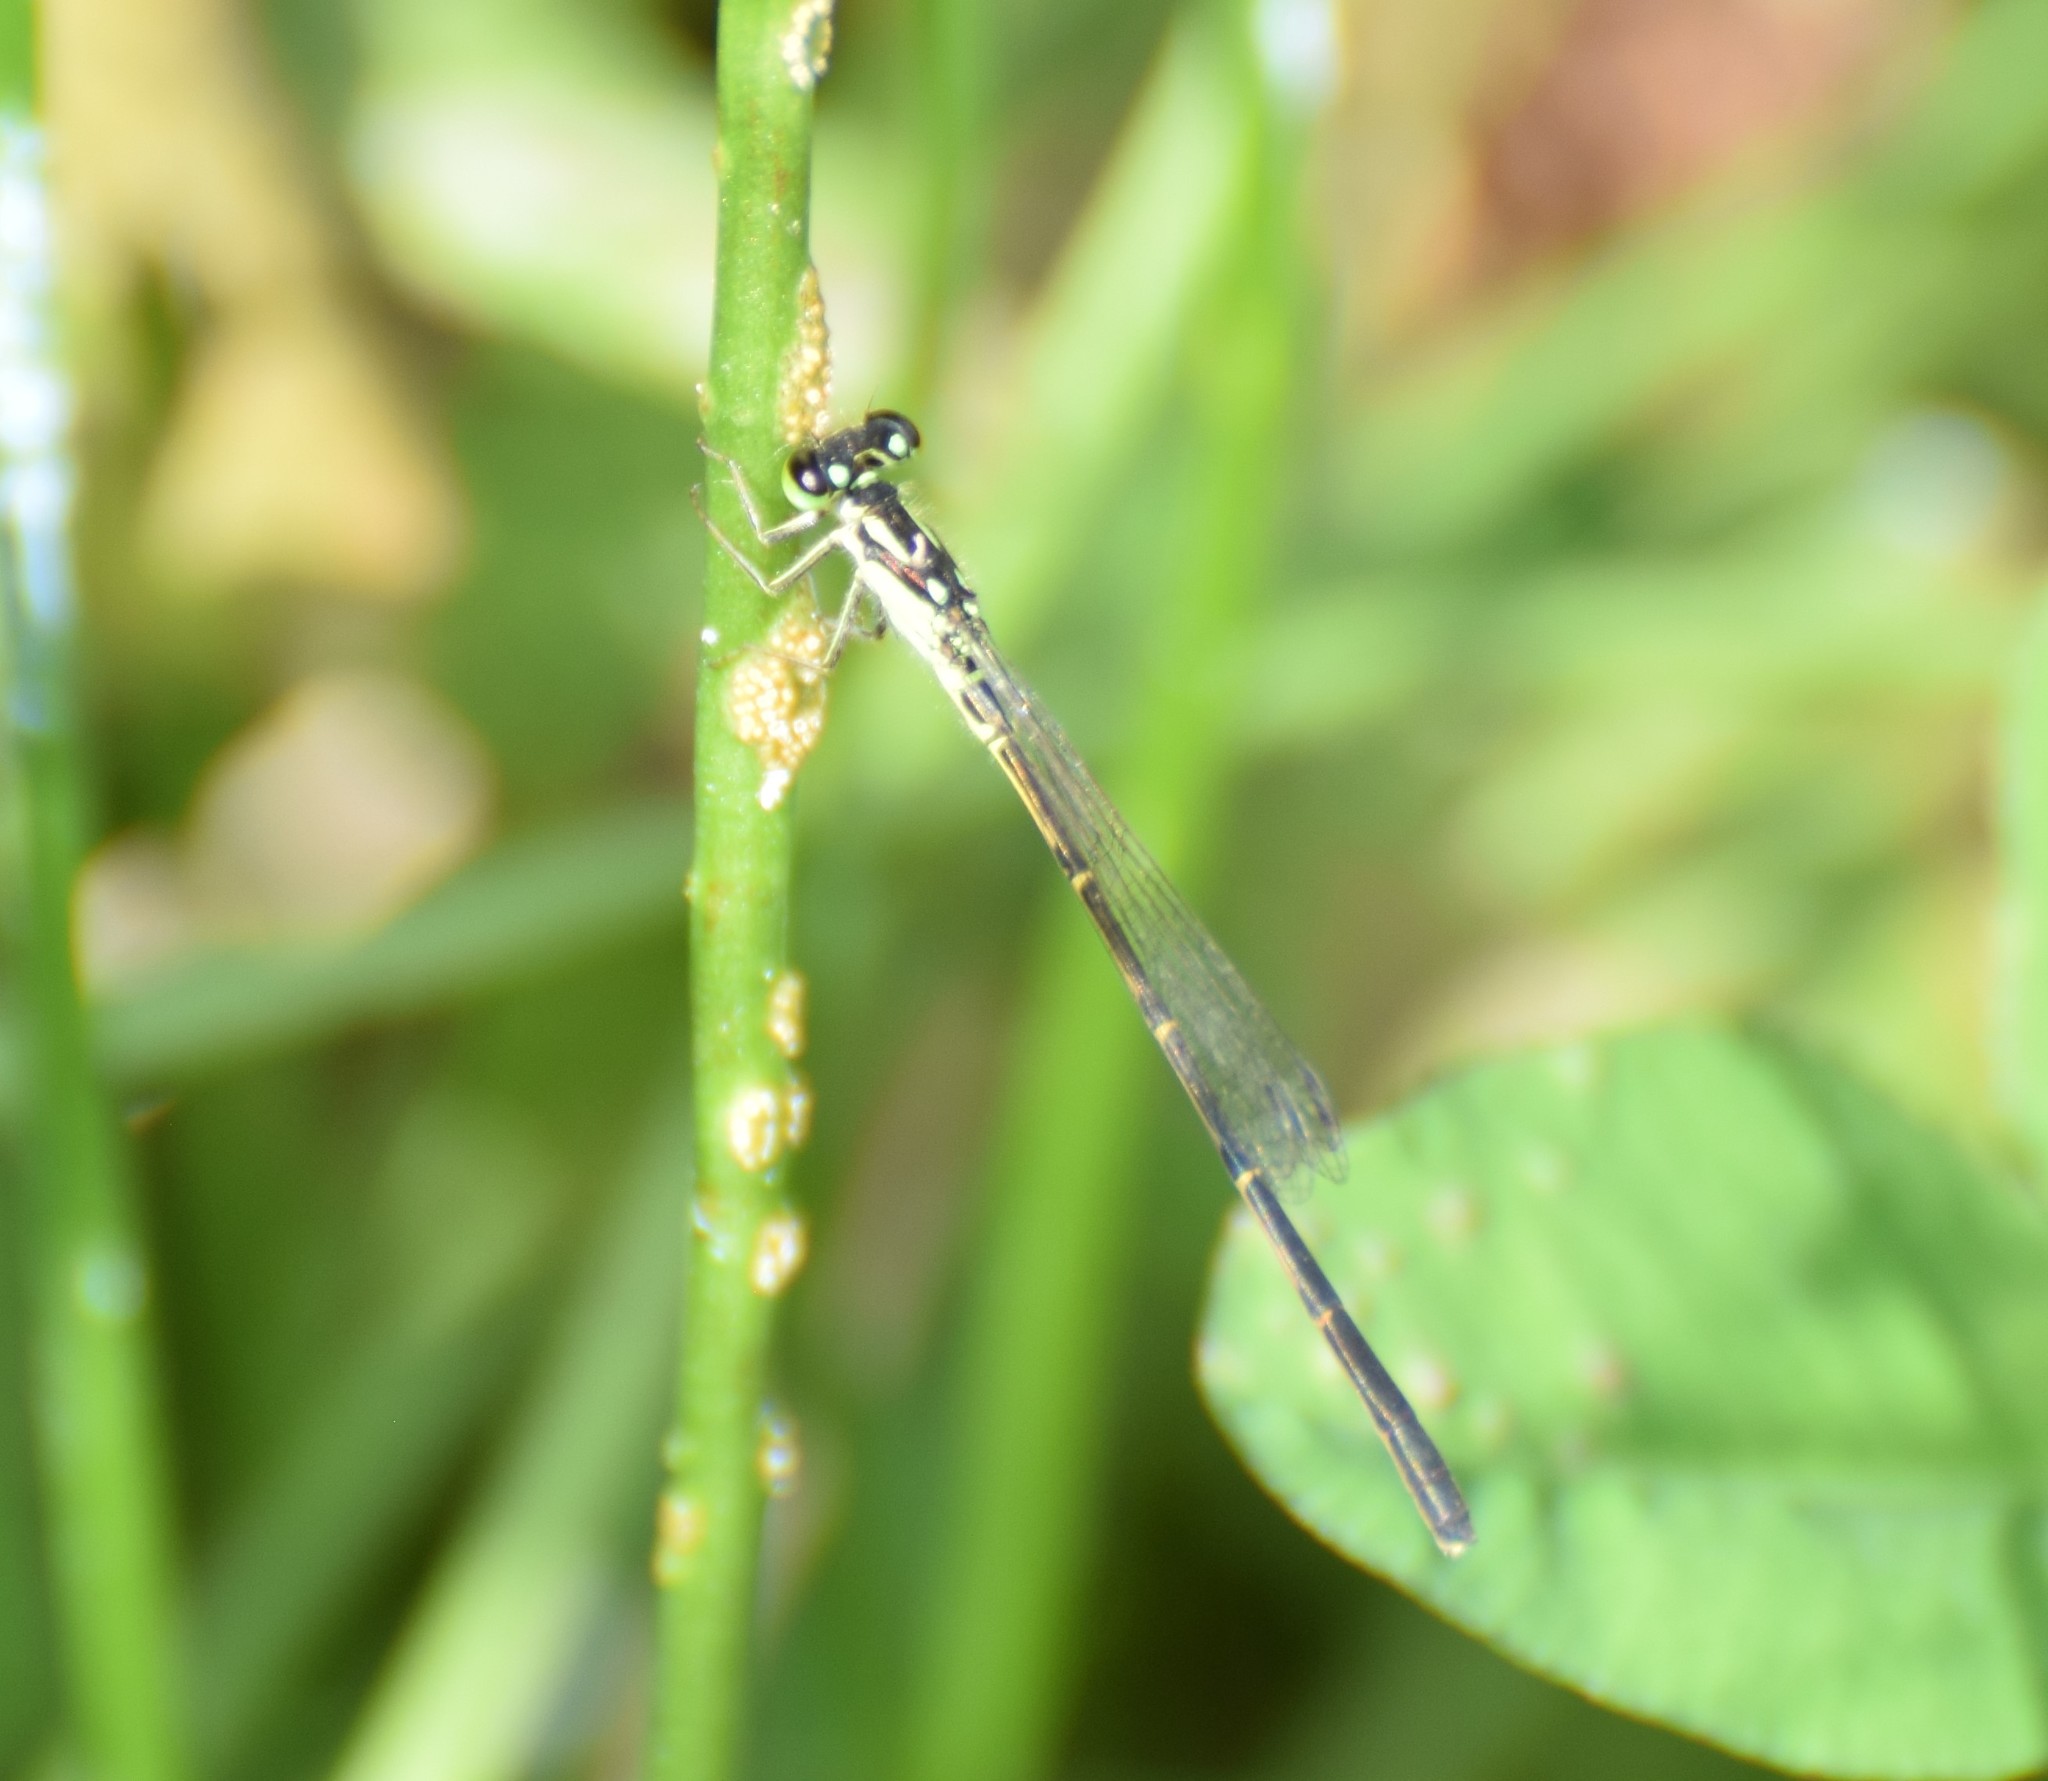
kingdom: Animalia
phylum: Arthropoda
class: Insecta
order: Odonata
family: Coenagrionidae
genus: Ischnura
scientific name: Ischnura posita
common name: Fragile forktail
